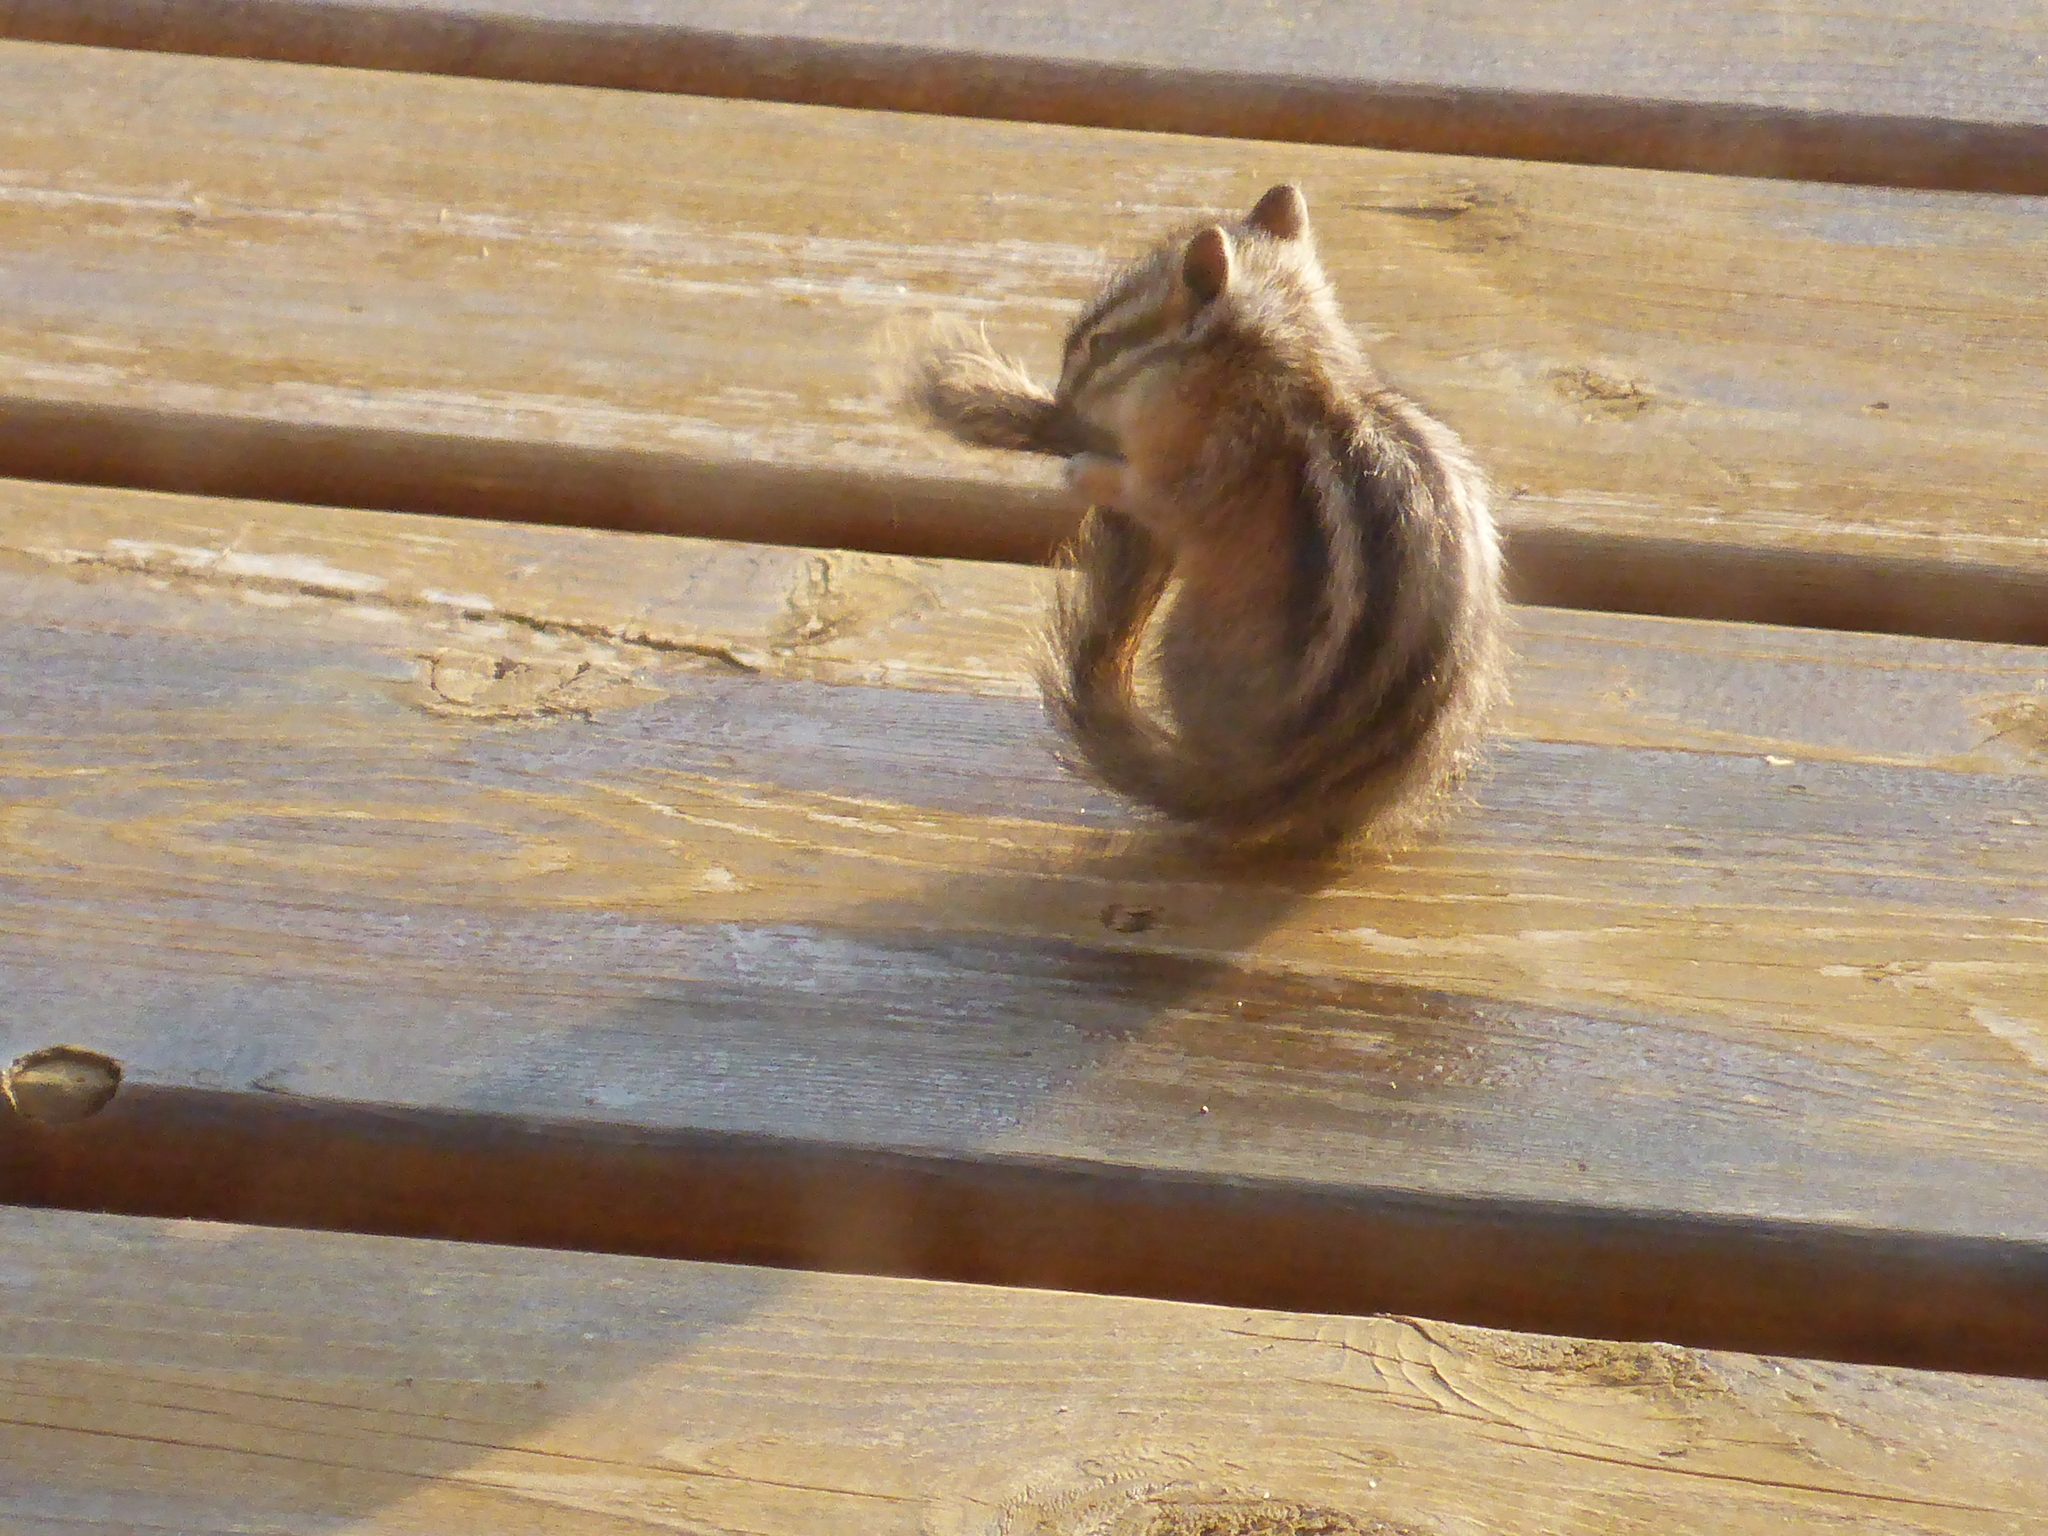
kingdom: Animalia
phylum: Chordata
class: Mammalia
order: Rodentia
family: Sciuridae
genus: Tamias
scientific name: Tamias minimus
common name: Least chipmunk
